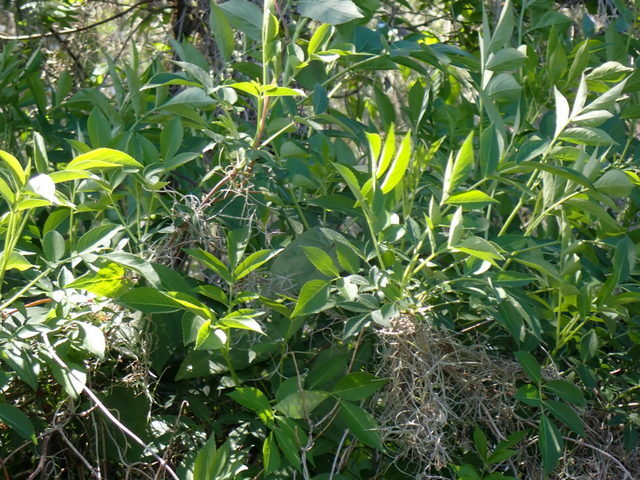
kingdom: Plantae
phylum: Tracheophyta
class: Magnoliopsida
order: Dipsacales
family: Viburnaceae
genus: Sambucus
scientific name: Sambucus canadensis
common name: American elder
